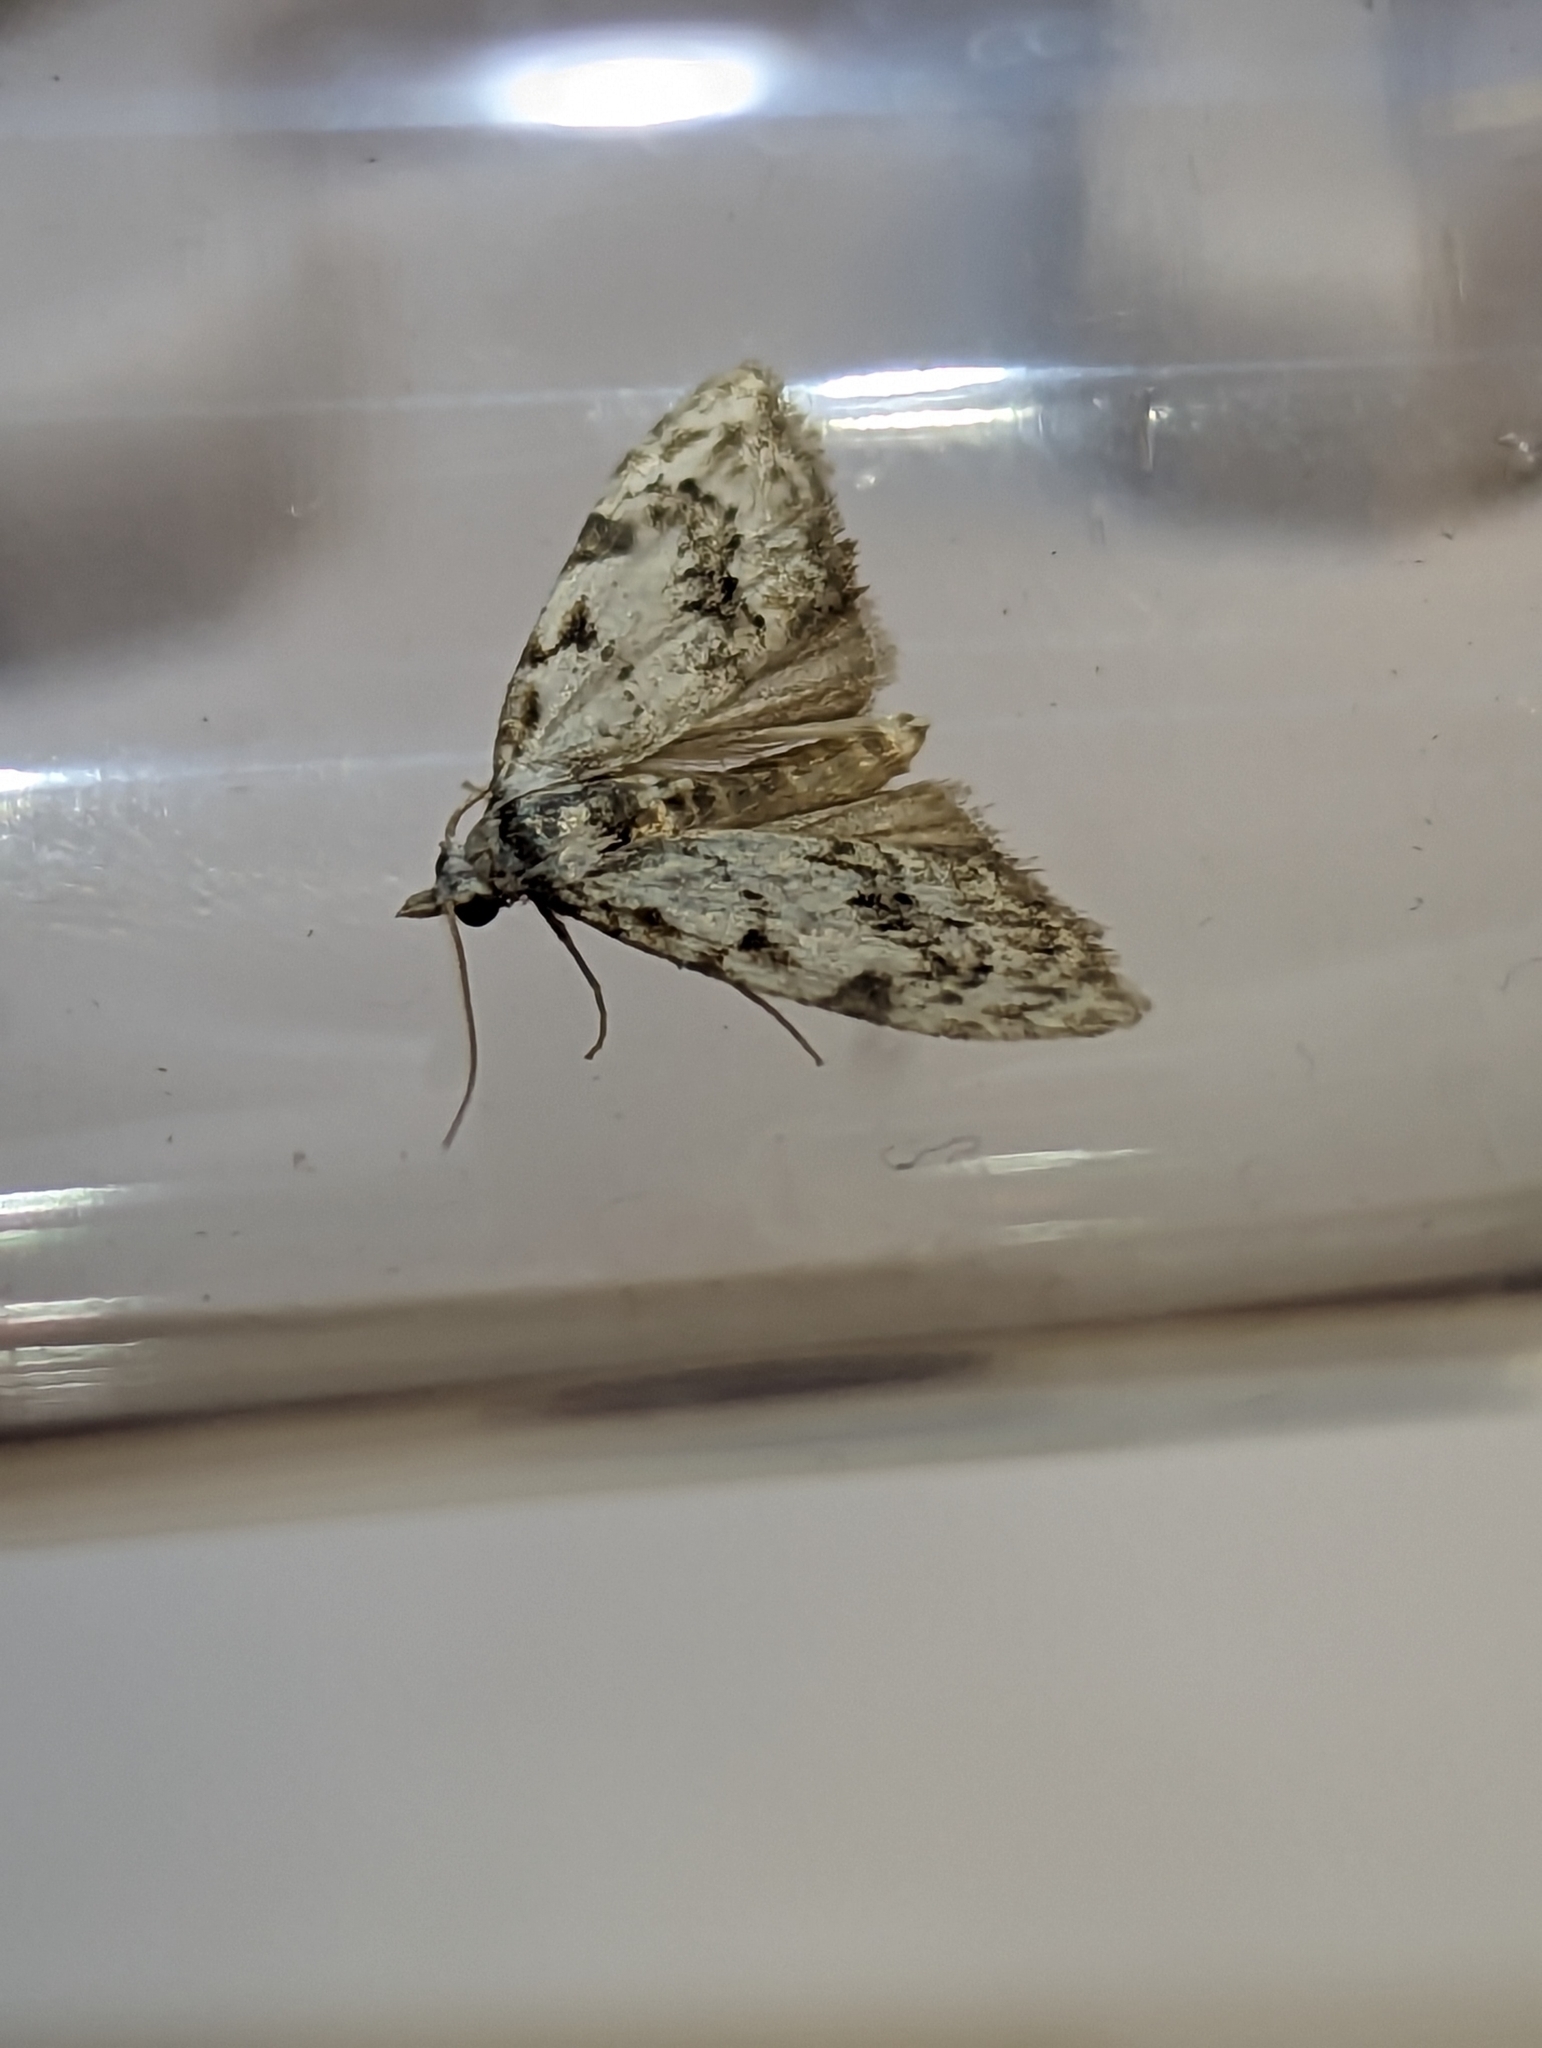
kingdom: Animalia
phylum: Arthropoda
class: Insecta
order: Lepidoptera
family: Nolidae
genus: Nola
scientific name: Nola confusalis
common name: Least black arches
